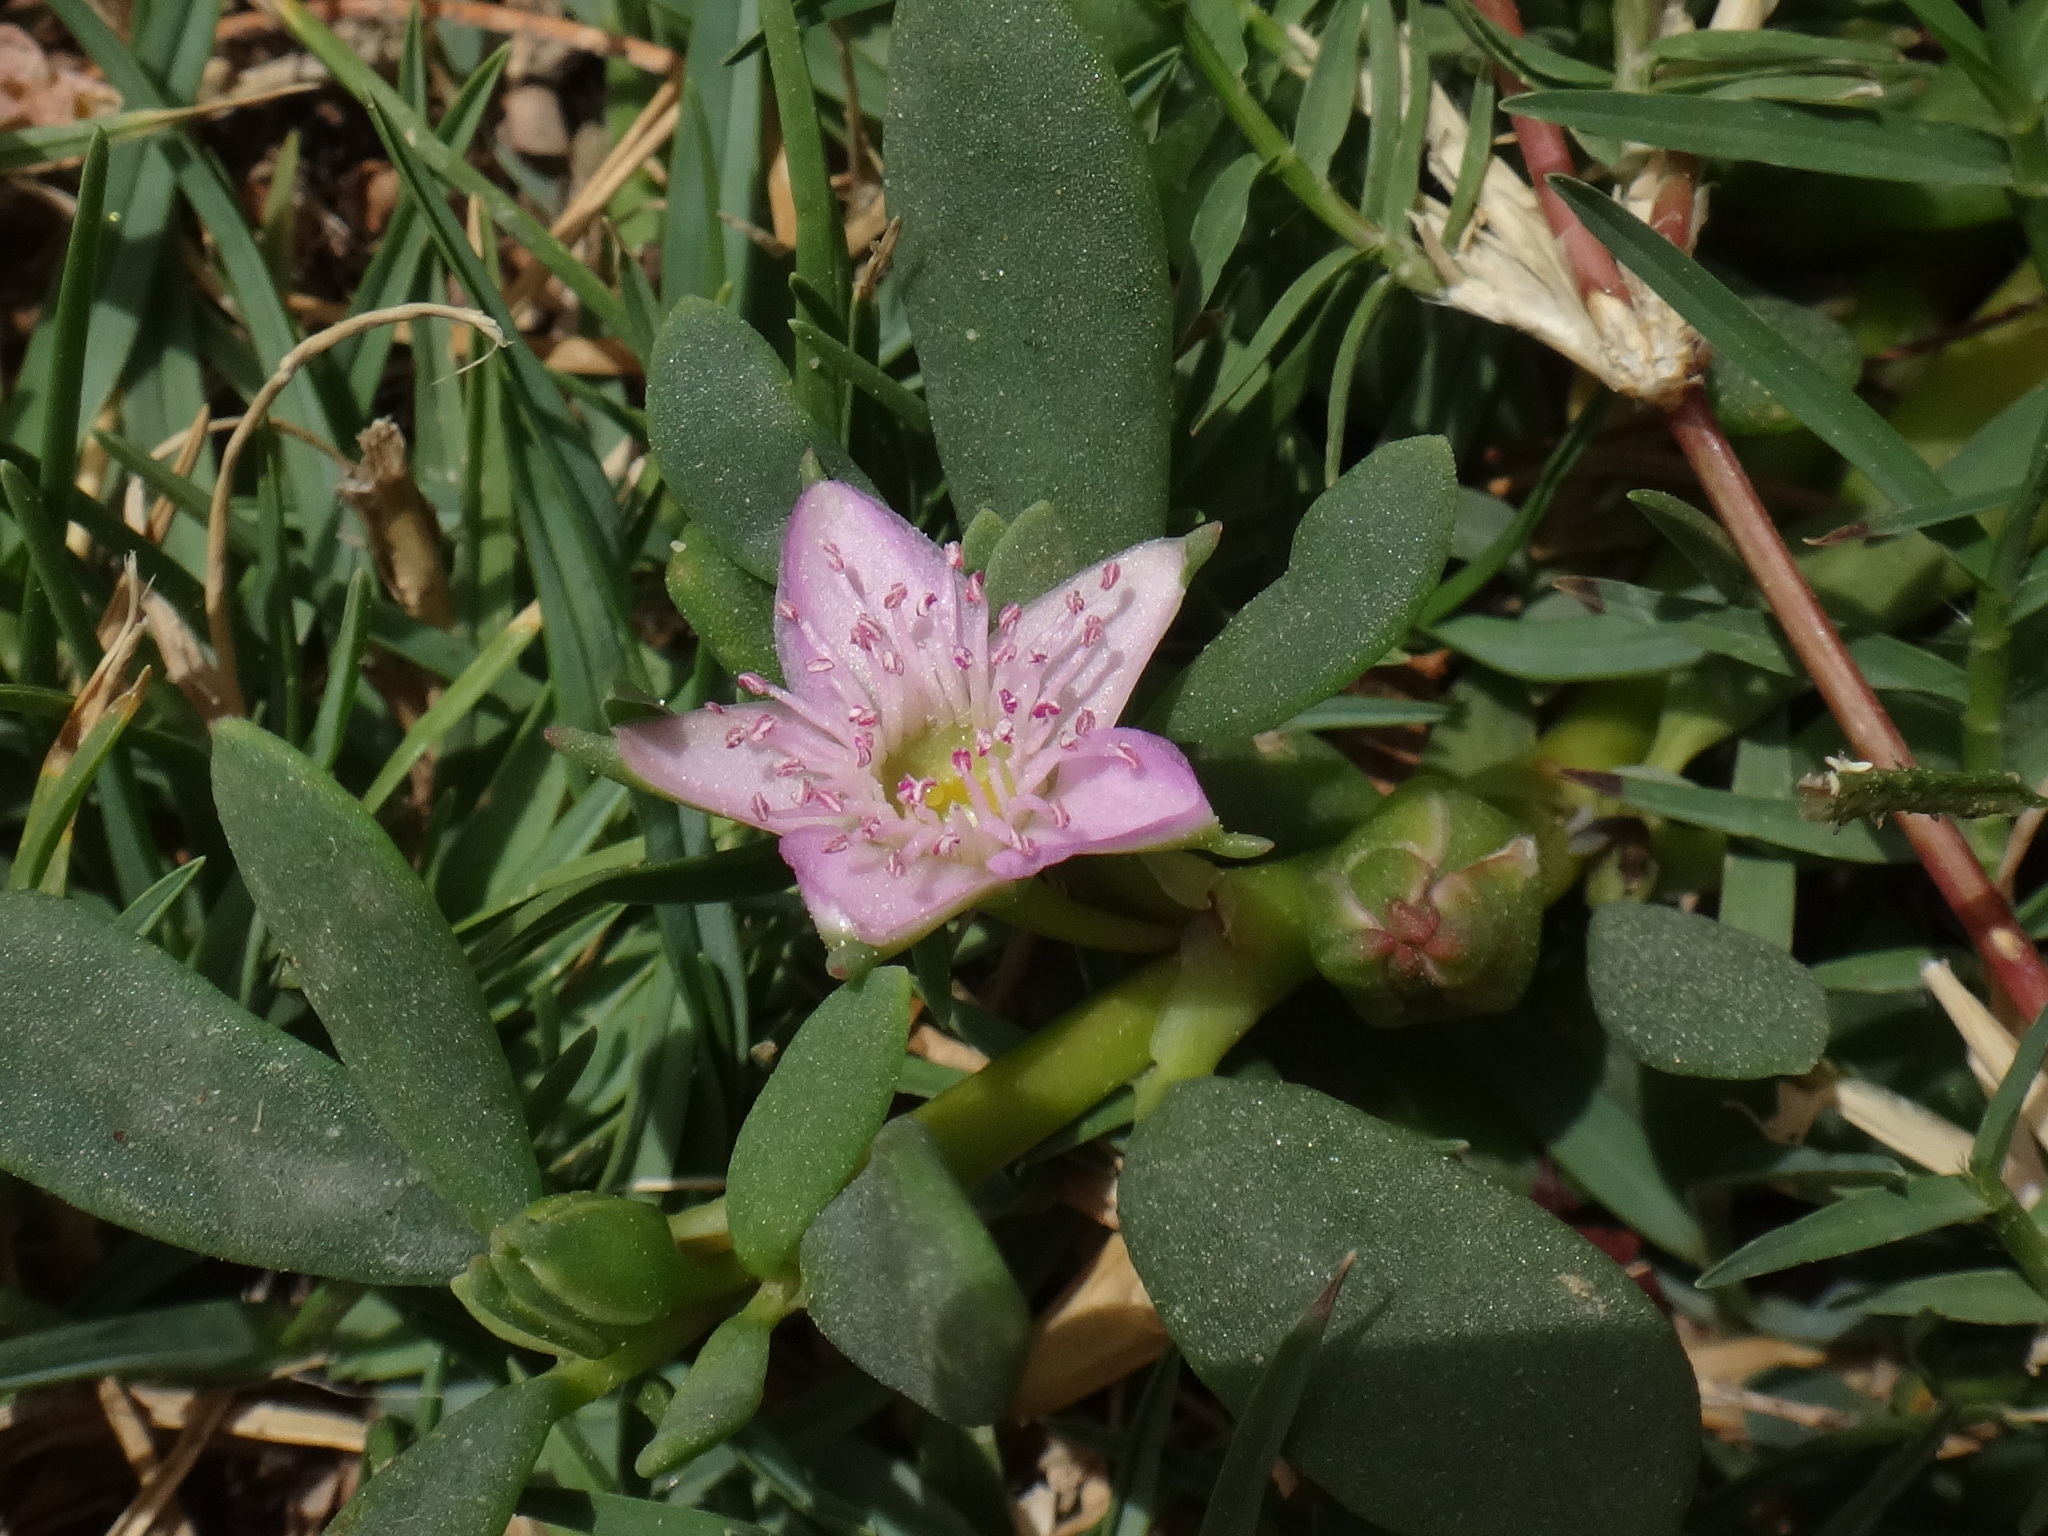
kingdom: Plantae
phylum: Tracheophyta
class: Magnoliopsida
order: Caryophyllales
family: Aizoaceae
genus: Sesuvium
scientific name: Sesuvium portulacastrum
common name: Sea-purslane
